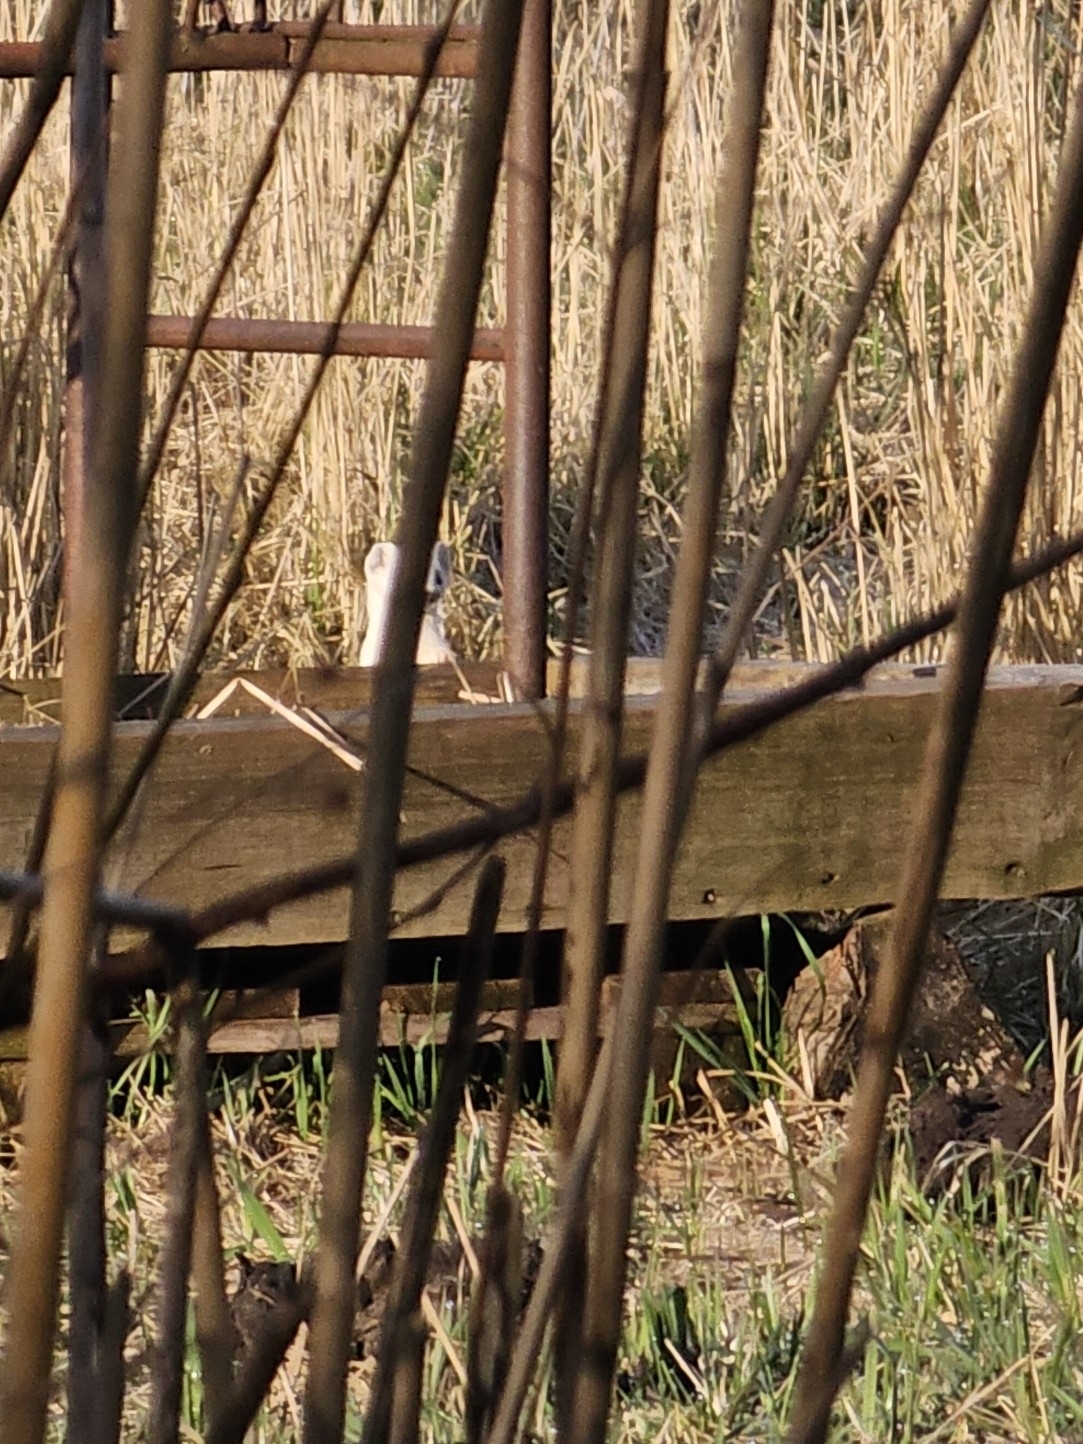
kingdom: Animalia
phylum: Chordata
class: Mammalia
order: Carnivora
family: Mustelidae
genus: Mustela
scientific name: Mustela erminea
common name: Stoat
